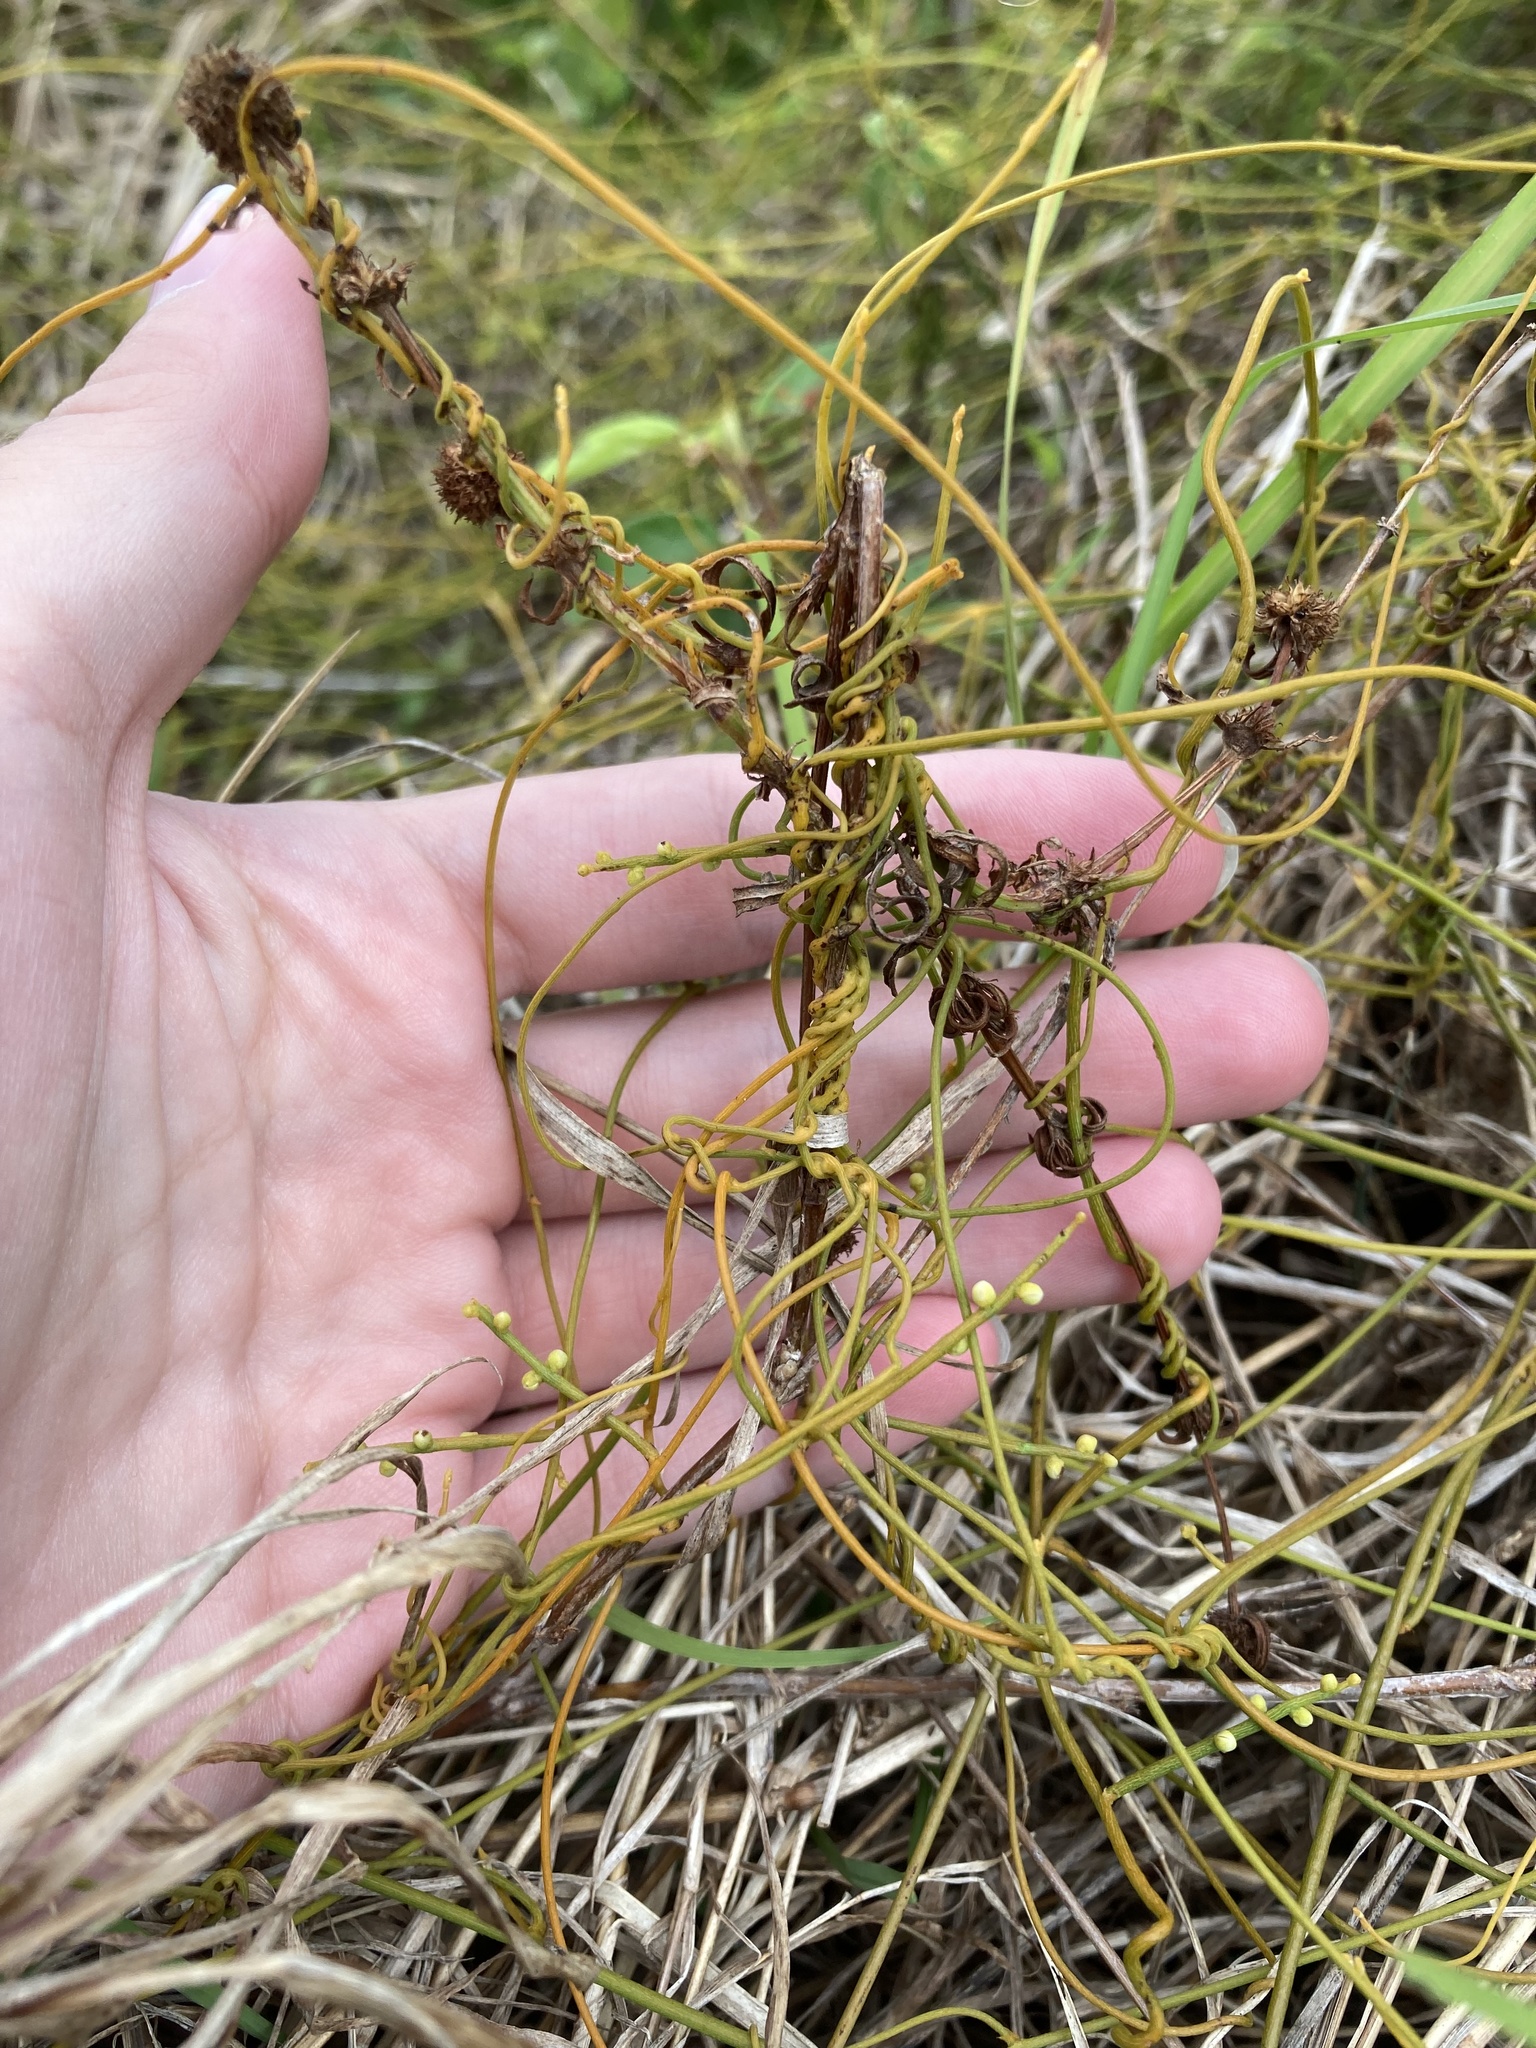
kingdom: Plantae
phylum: Tracheophyta
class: Magnoliopsida
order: Laurales
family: Lauraceae
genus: Cassytha
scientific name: Cassytha filiformis
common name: Dodder-laurel
